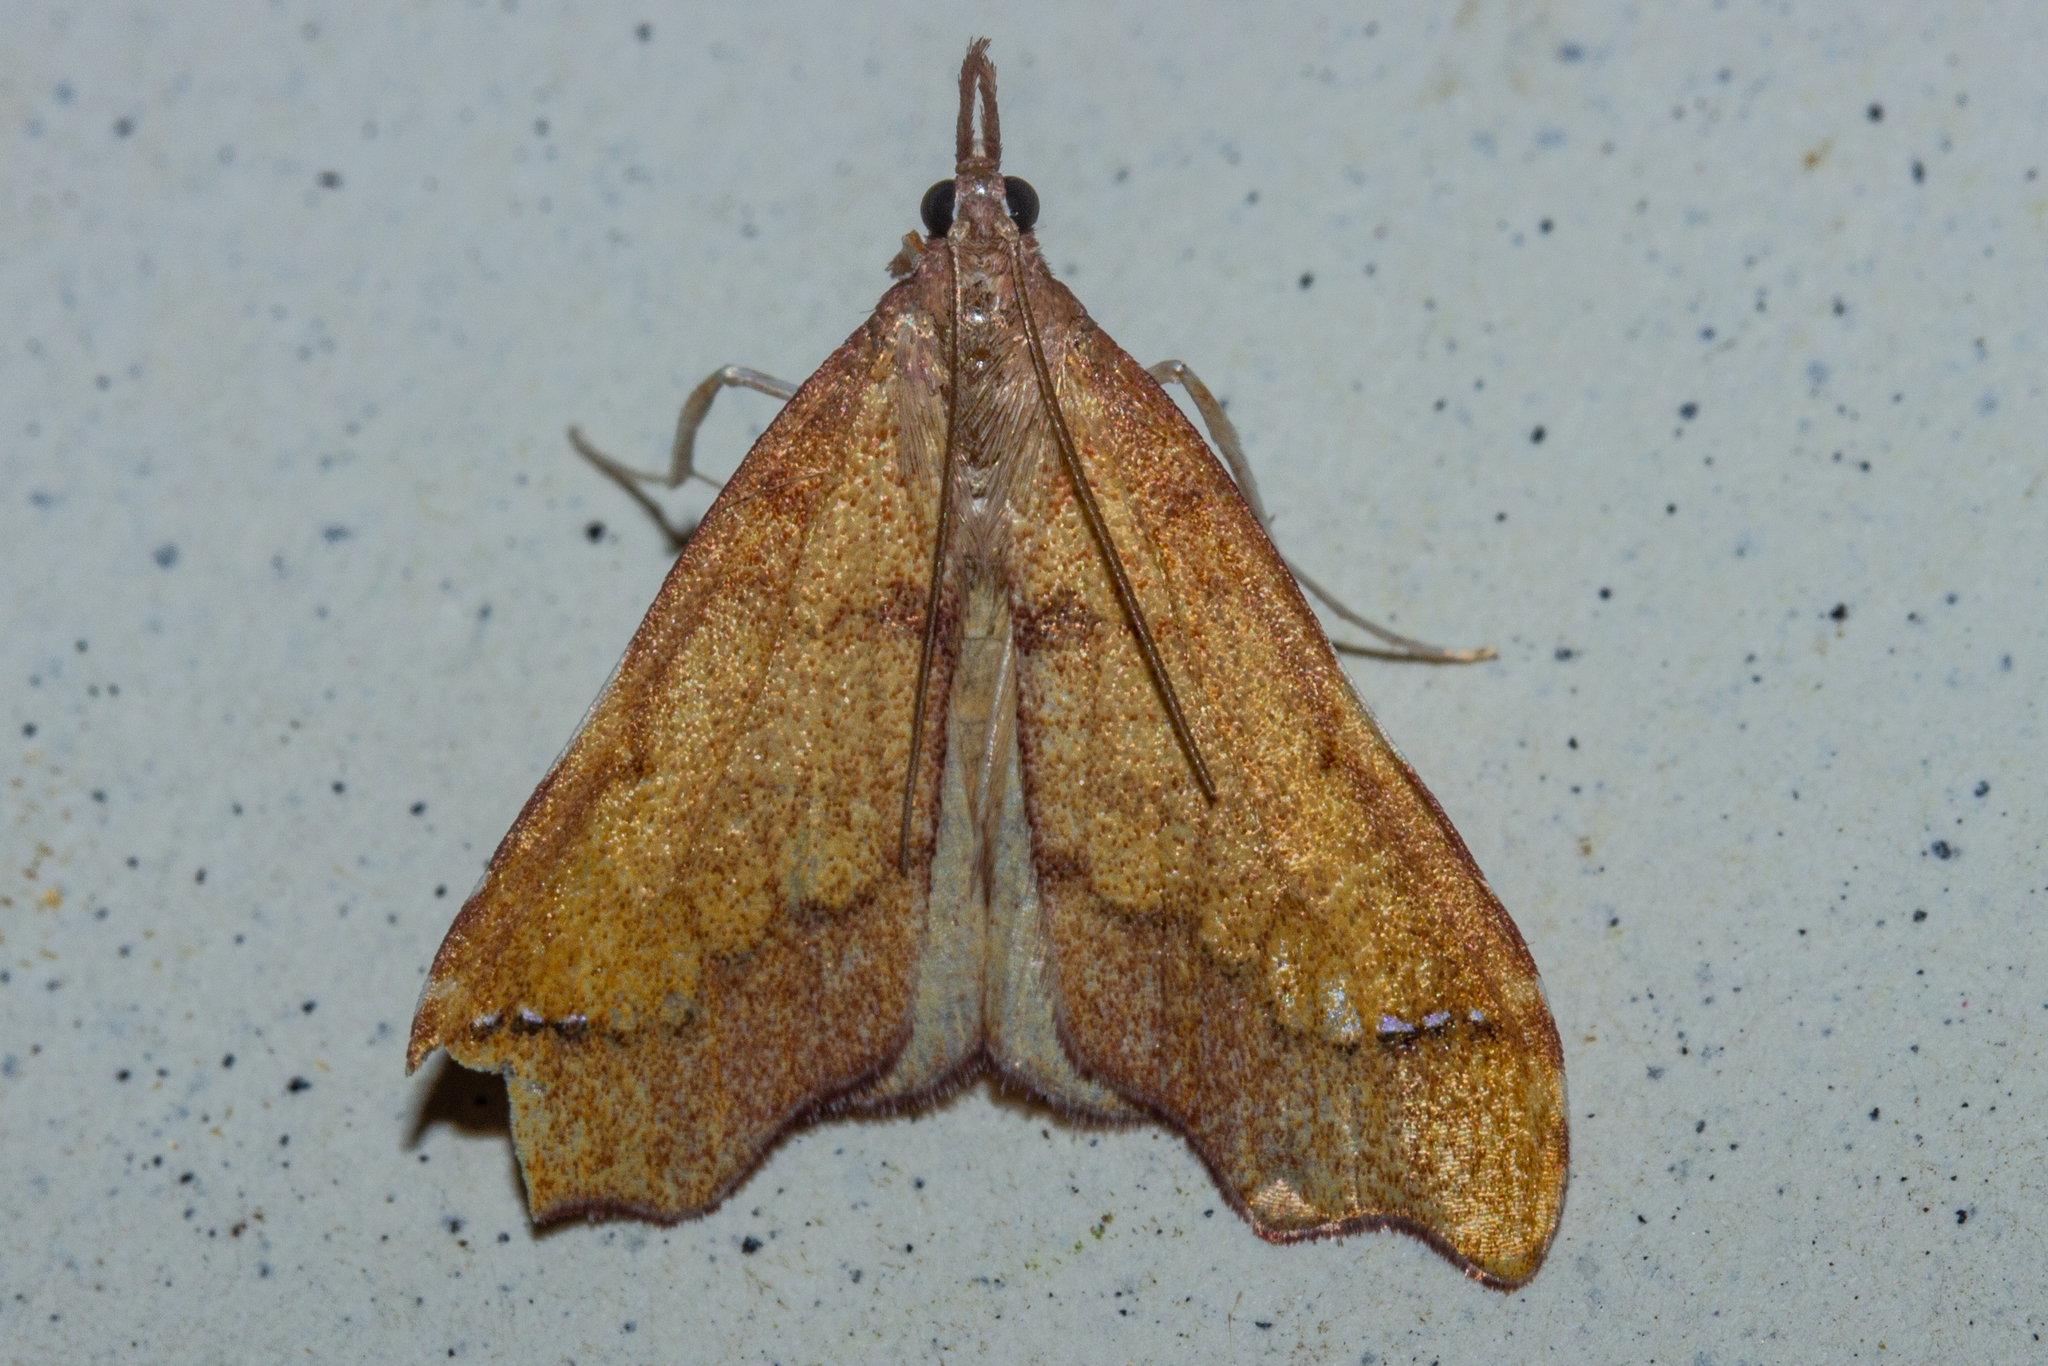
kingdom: Animalia
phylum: Arthropoda
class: Insecta
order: Lepidoptera
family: Crambidae
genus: Deana
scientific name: Deana hybreasalis
